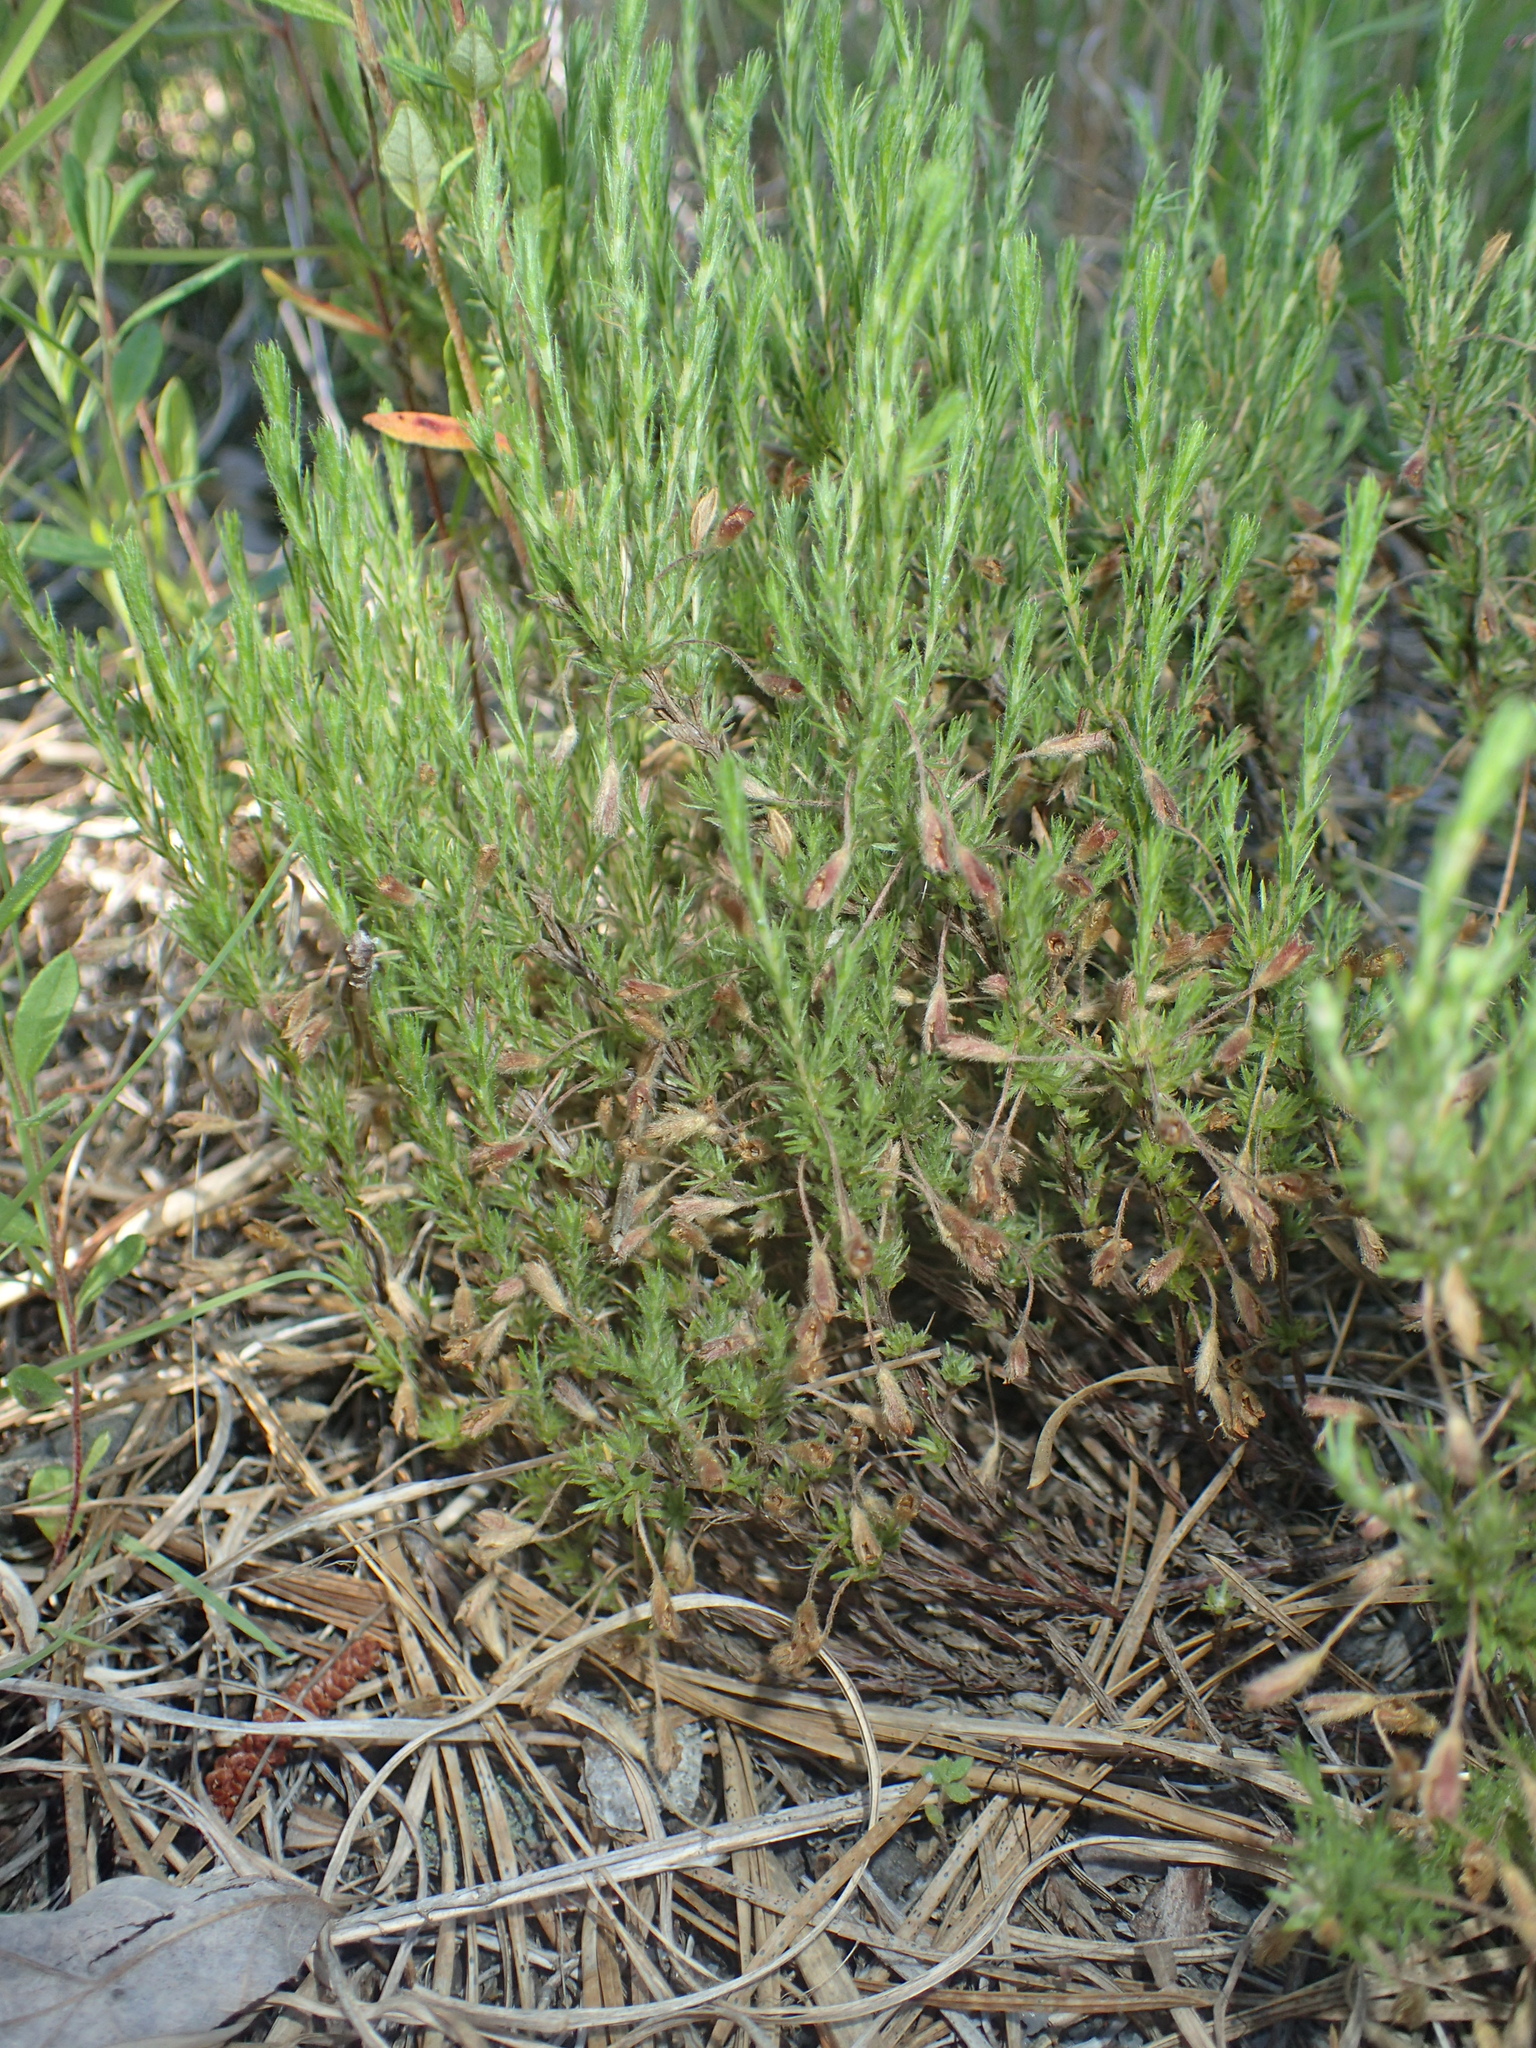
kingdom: Plantae
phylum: Tracheophyta
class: Magnoliopsida
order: Malvales
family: Cistaceae
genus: Hudsonia
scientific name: Hudsonia ericoides
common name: Golden-heather
